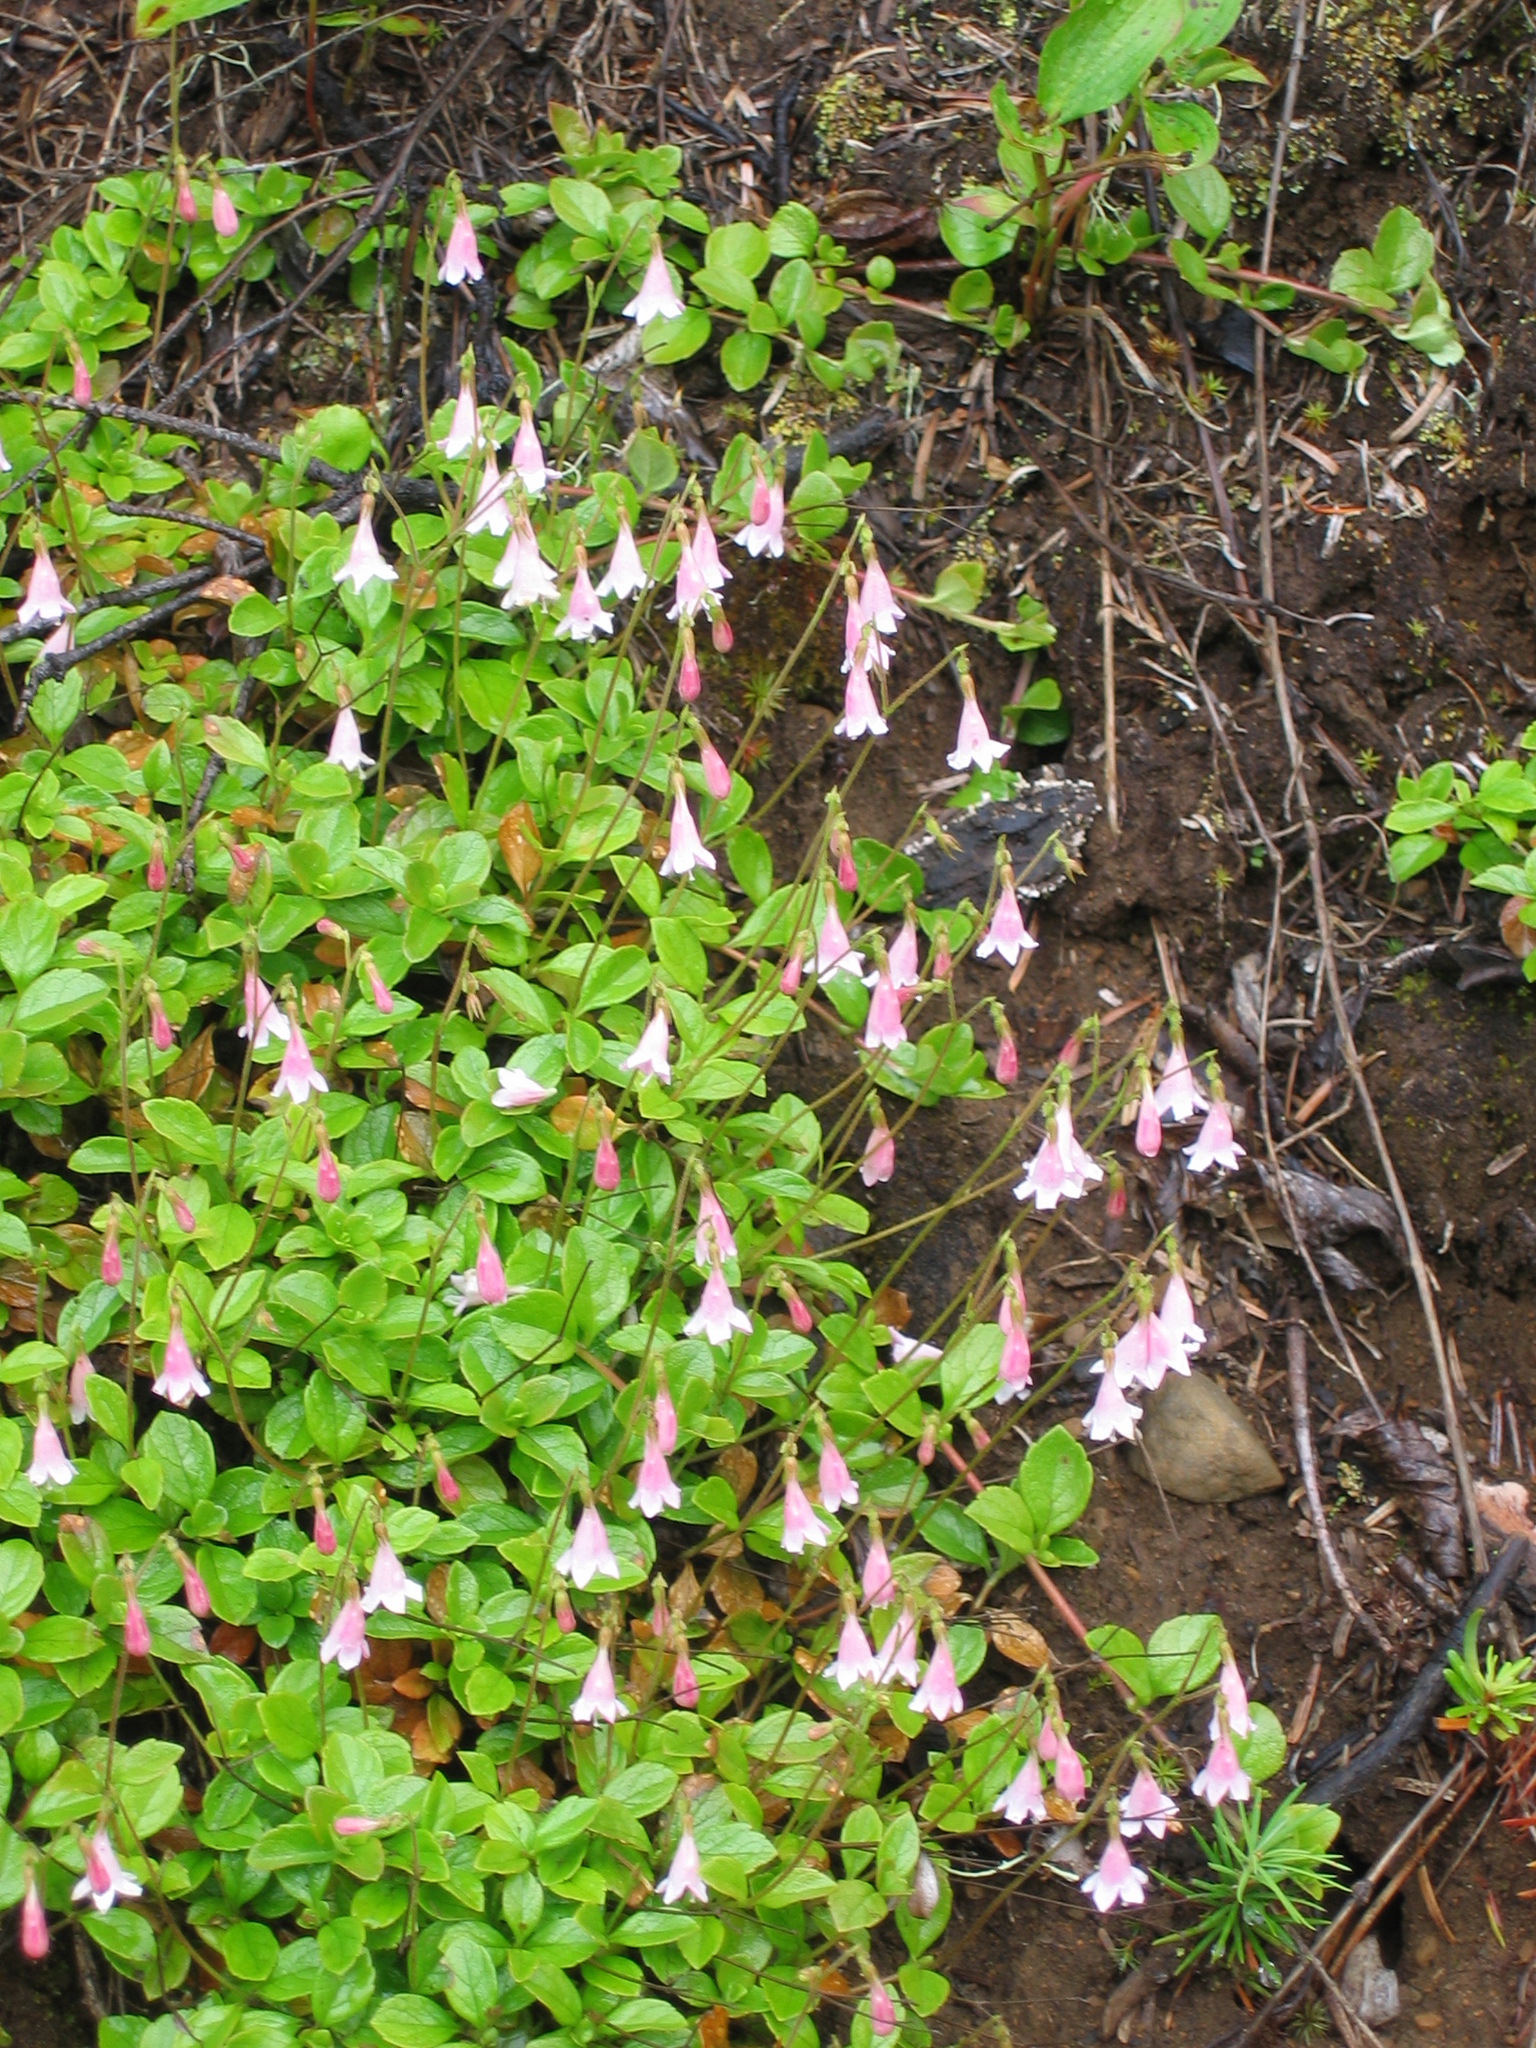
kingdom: Plantae
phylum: Tracheophyta
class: Magnoliopsida
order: Dipsacales
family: Caprifoliaceae
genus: Linnaea
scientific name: Linnaea borealis
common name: Twinflower
